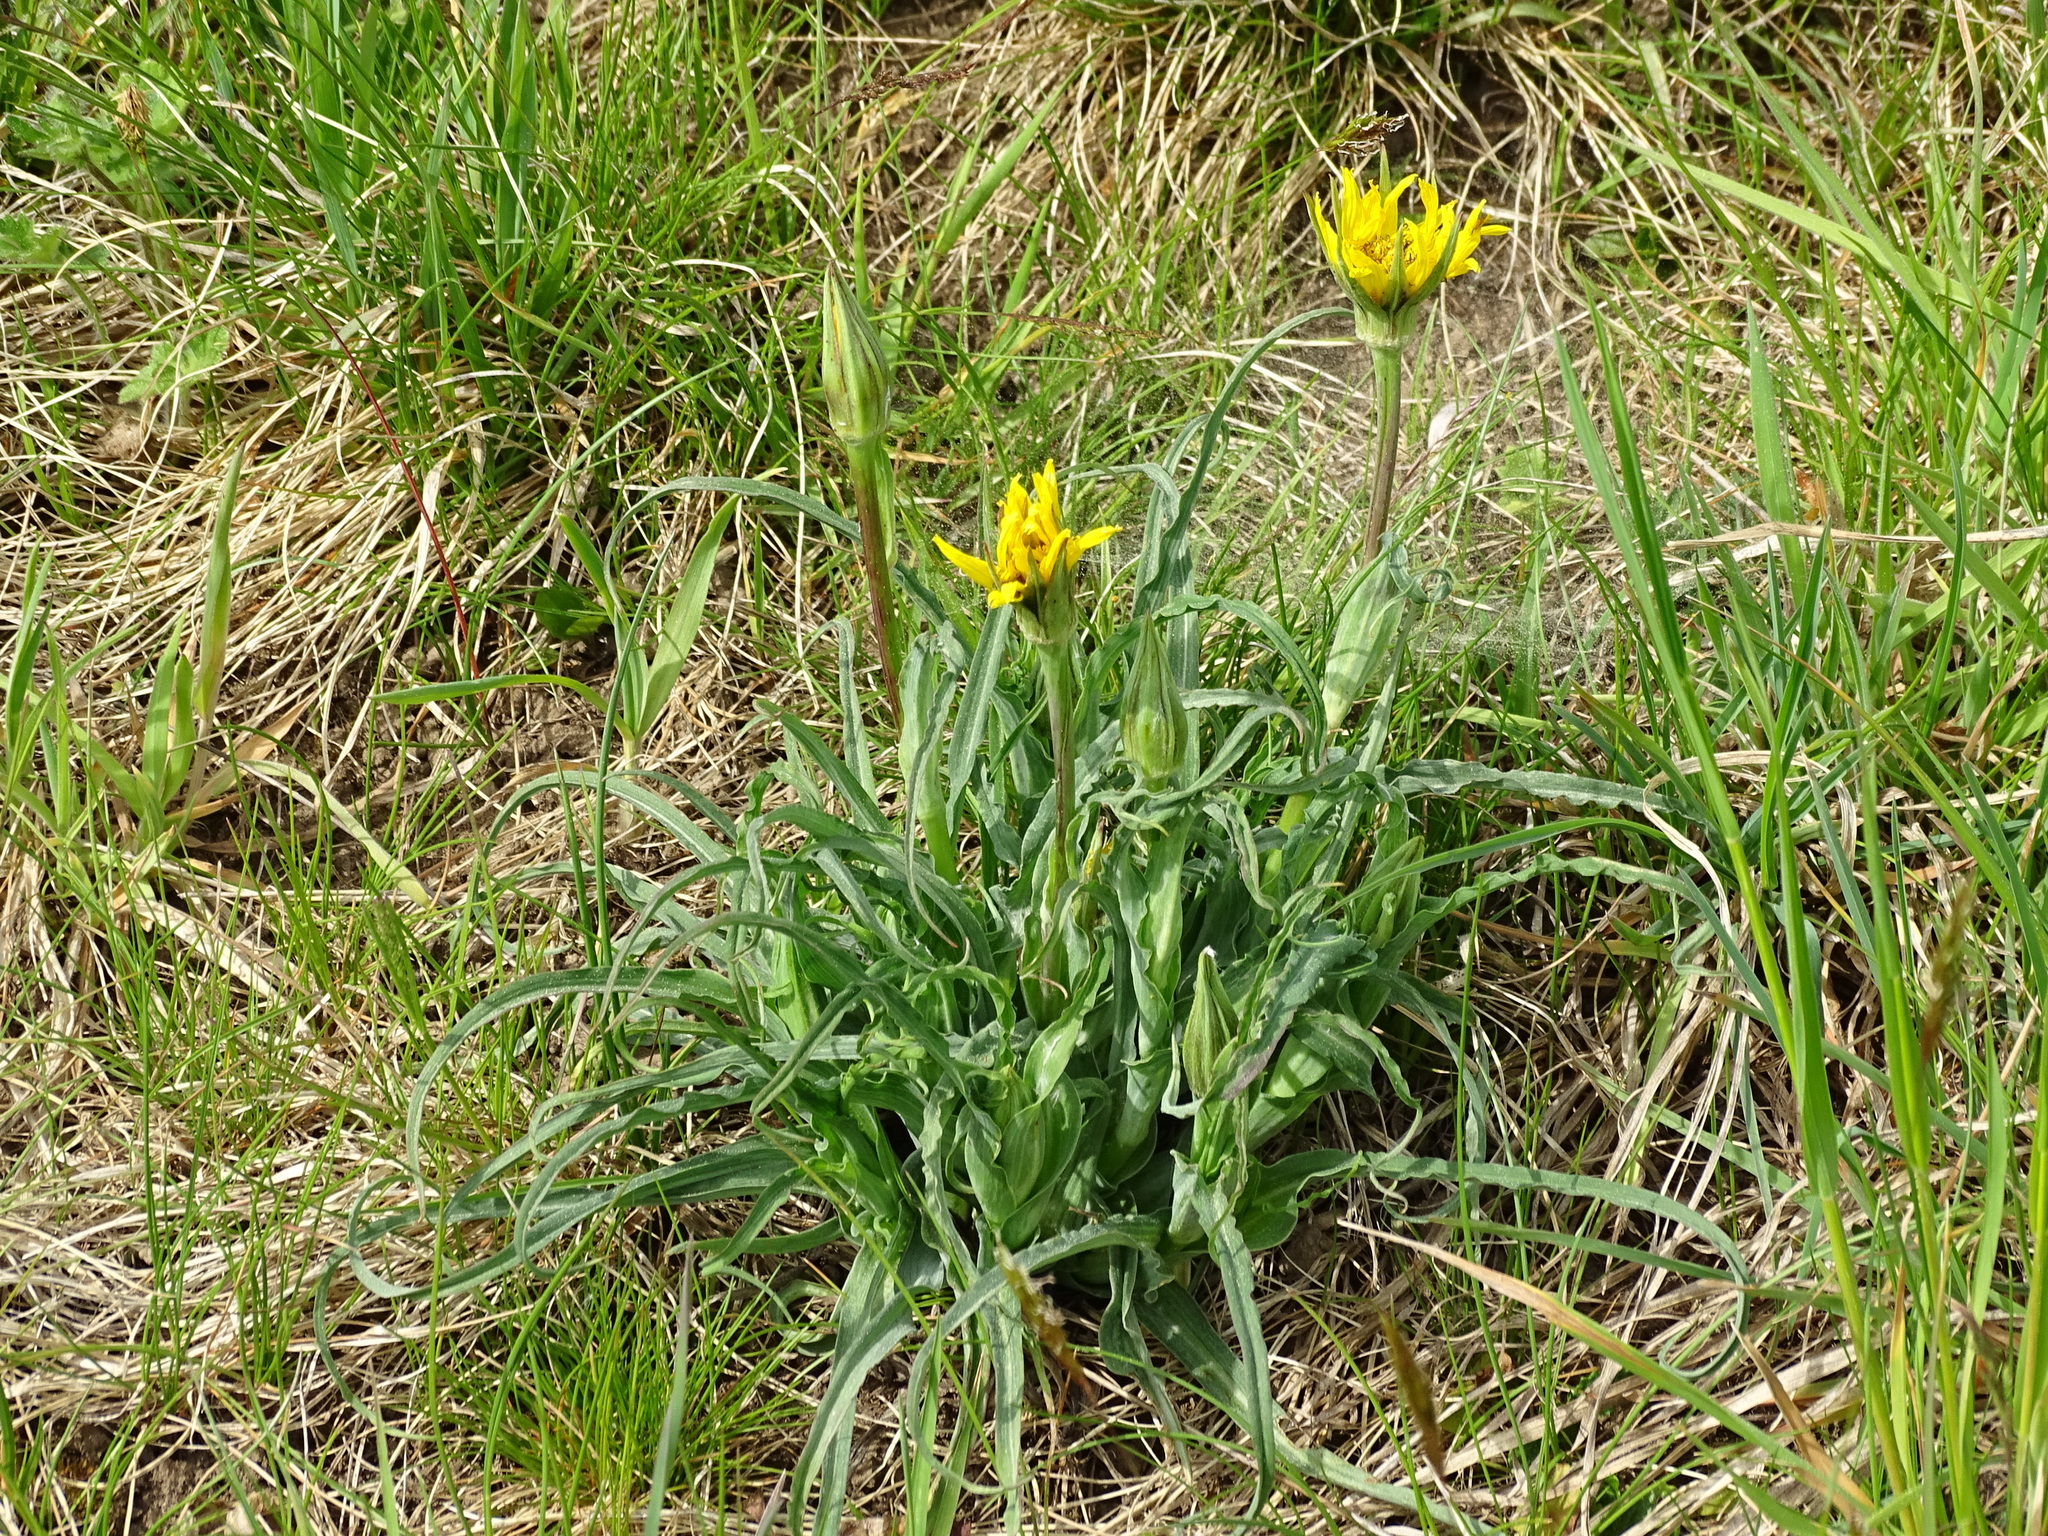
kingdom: Plantae
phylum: Tracheophyta
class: Magnoliopsida
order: Asterales
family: Asteraceae
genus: Tragopogon
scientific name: Tragopogon orientalis
